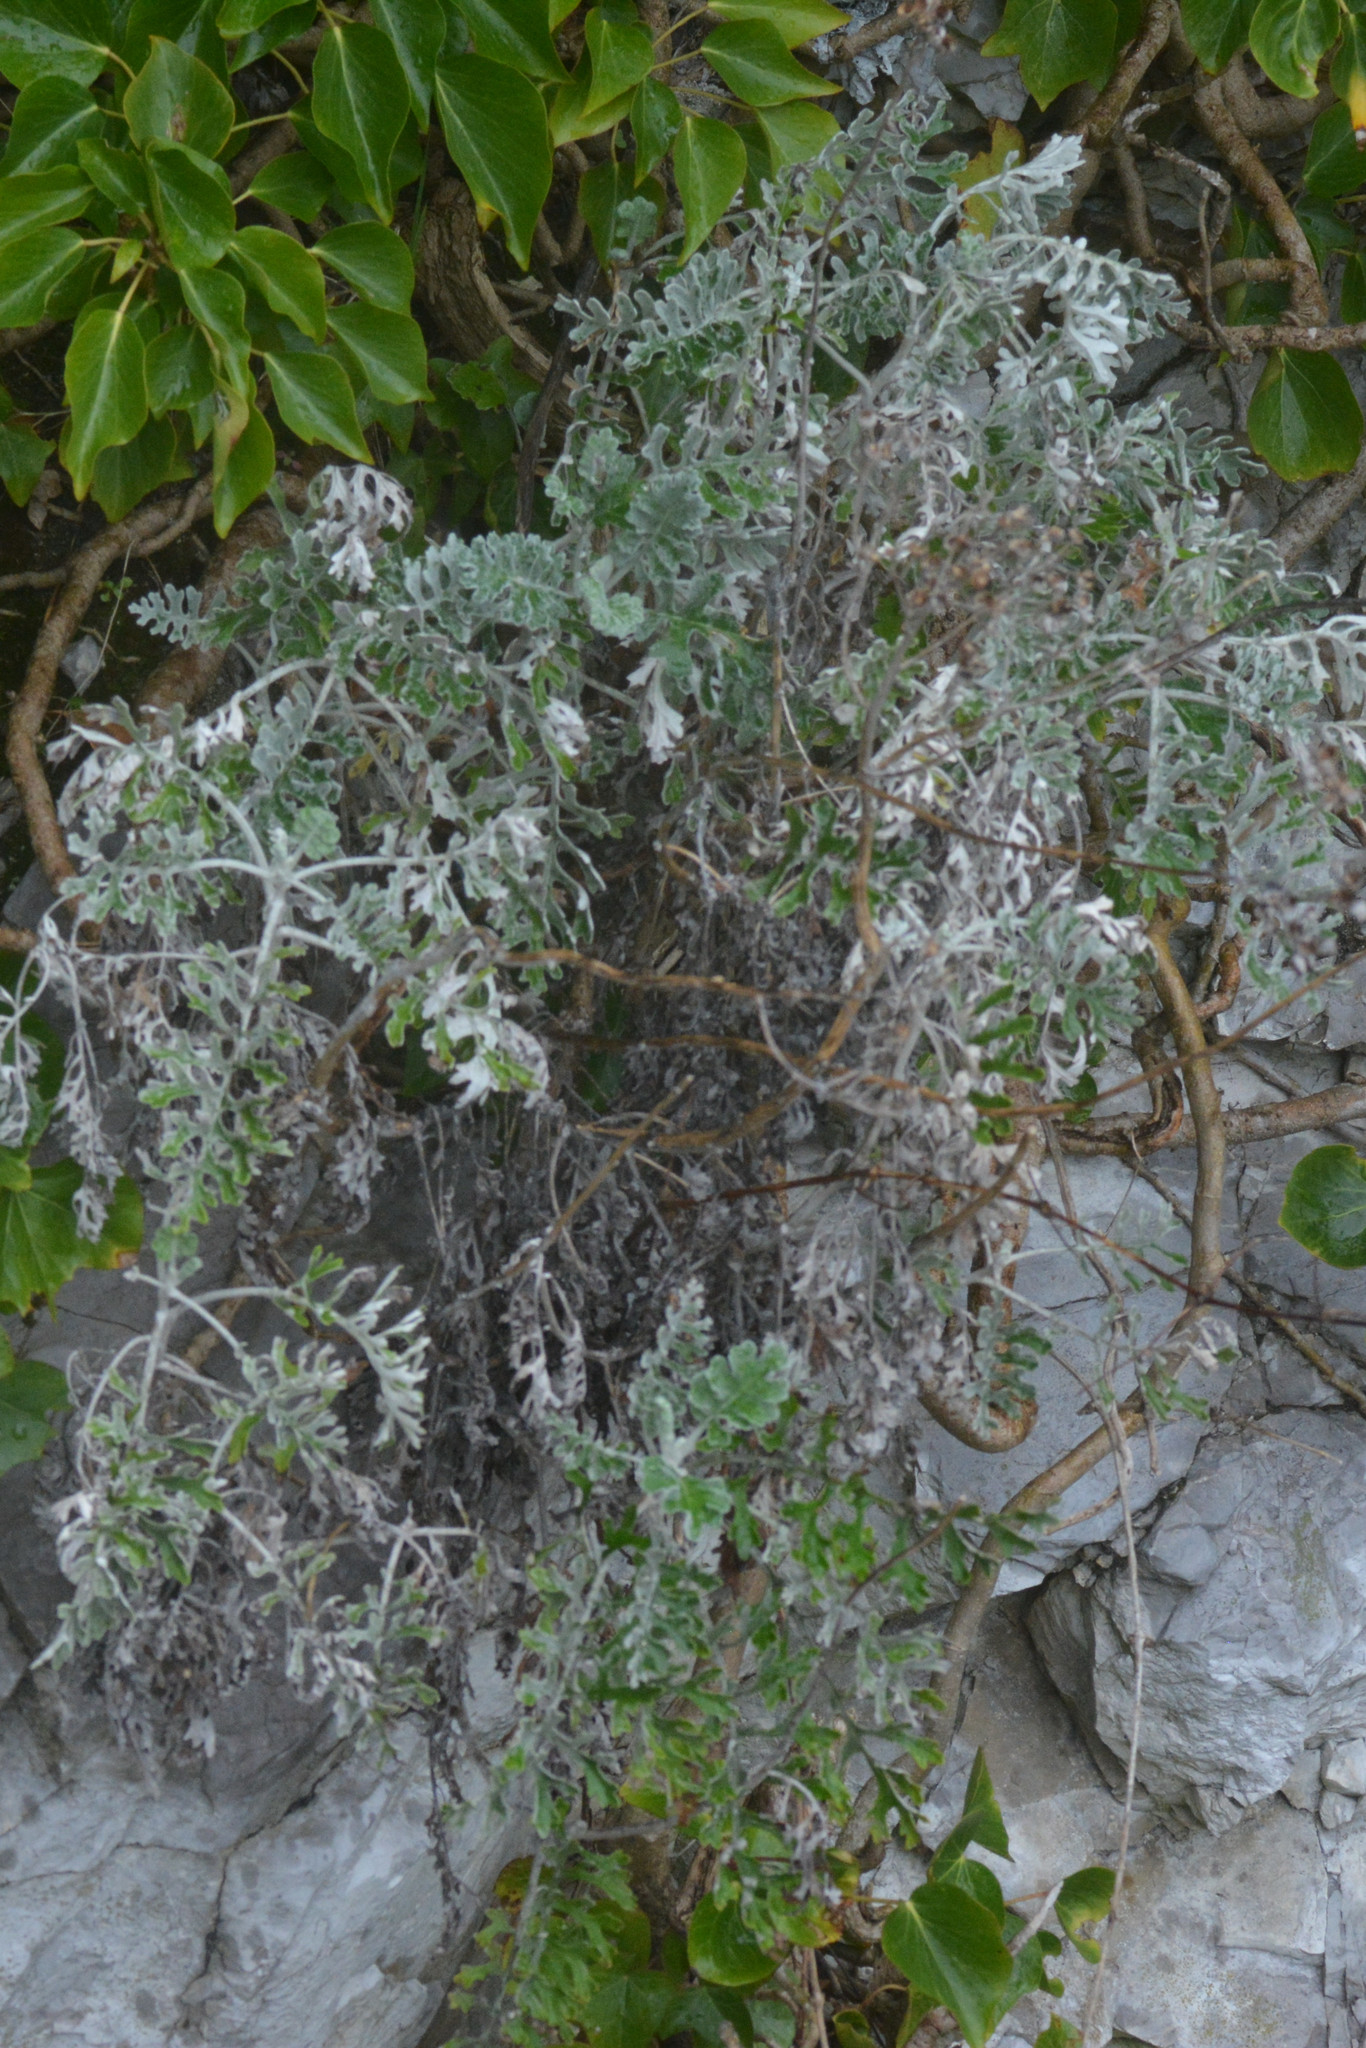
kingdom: Plantae
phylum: Tracheophyta
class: Magnoliopsida
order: Asterales
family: Asteraceae
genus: Jacobaea
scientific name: Jacobaea maritima
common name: Silver ragwort
